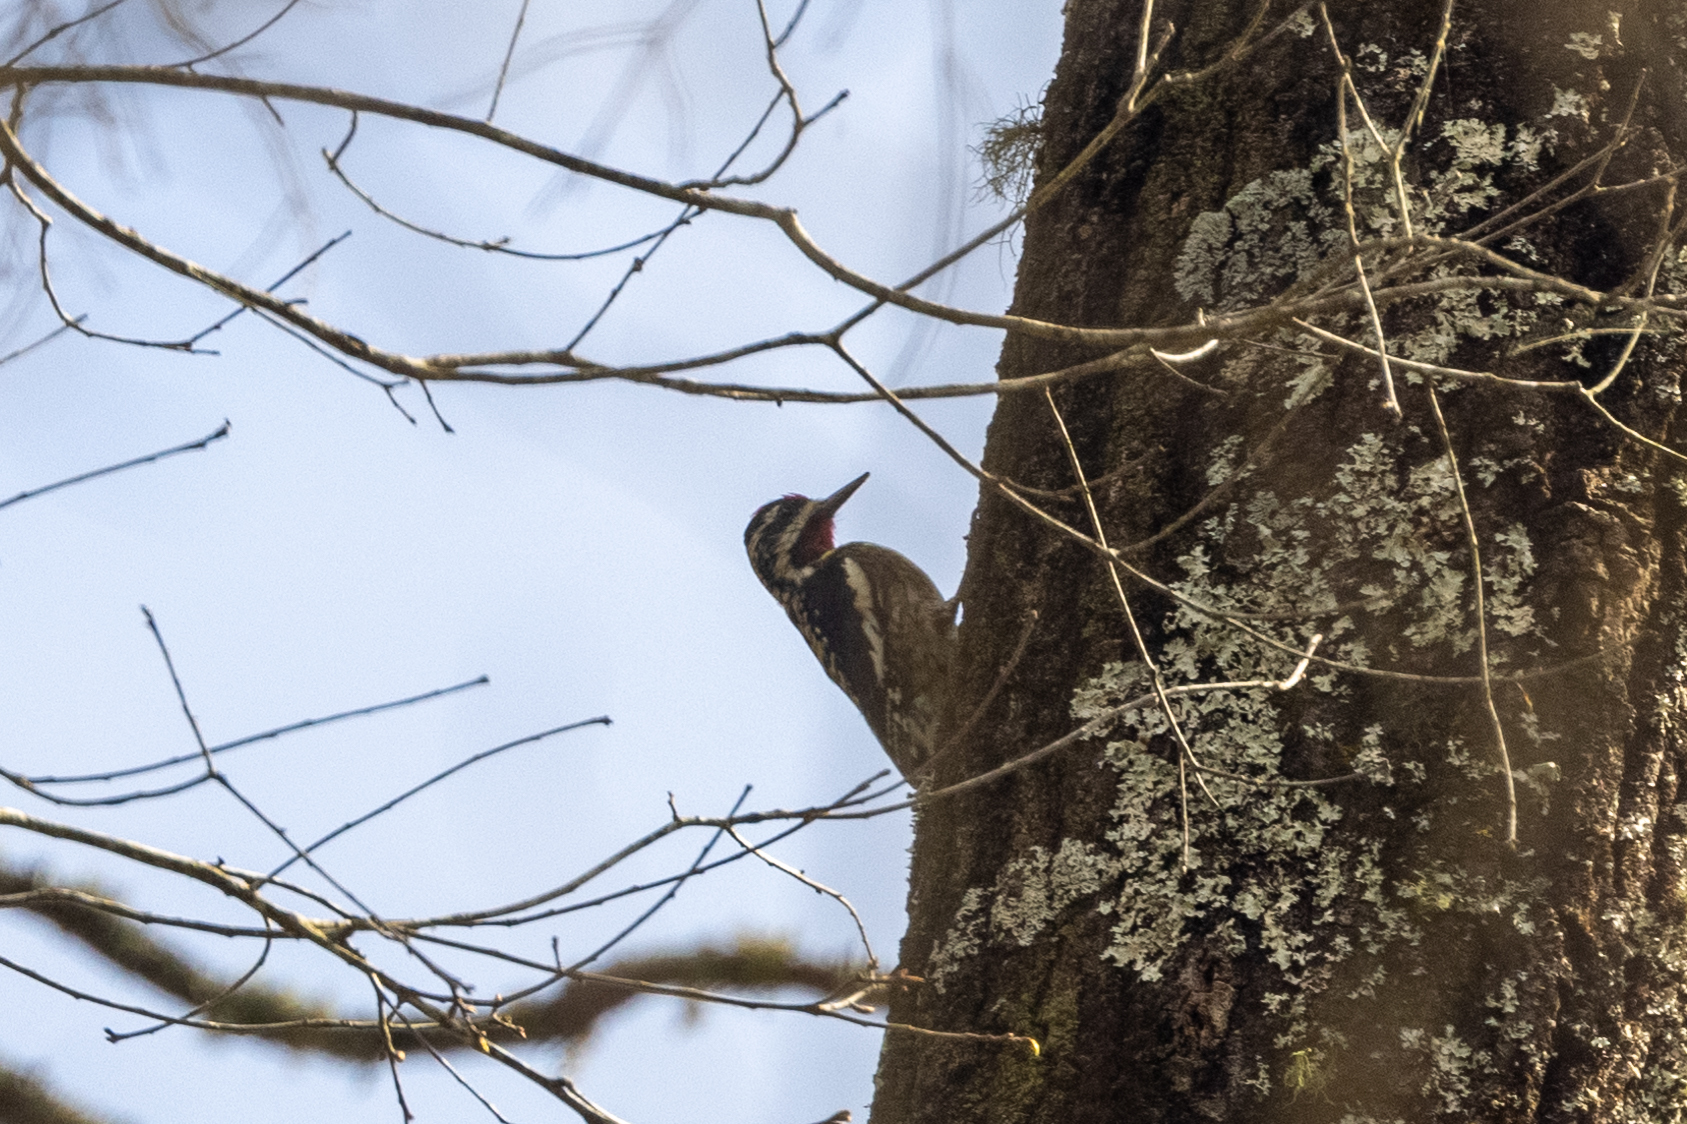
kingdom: Animalia
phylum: Chordata
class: Aves
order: Piciformes
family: Picidae
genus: Sphyrapicus
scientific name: Sphyrapicus varius
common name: Yellow-bellied sapsucker
